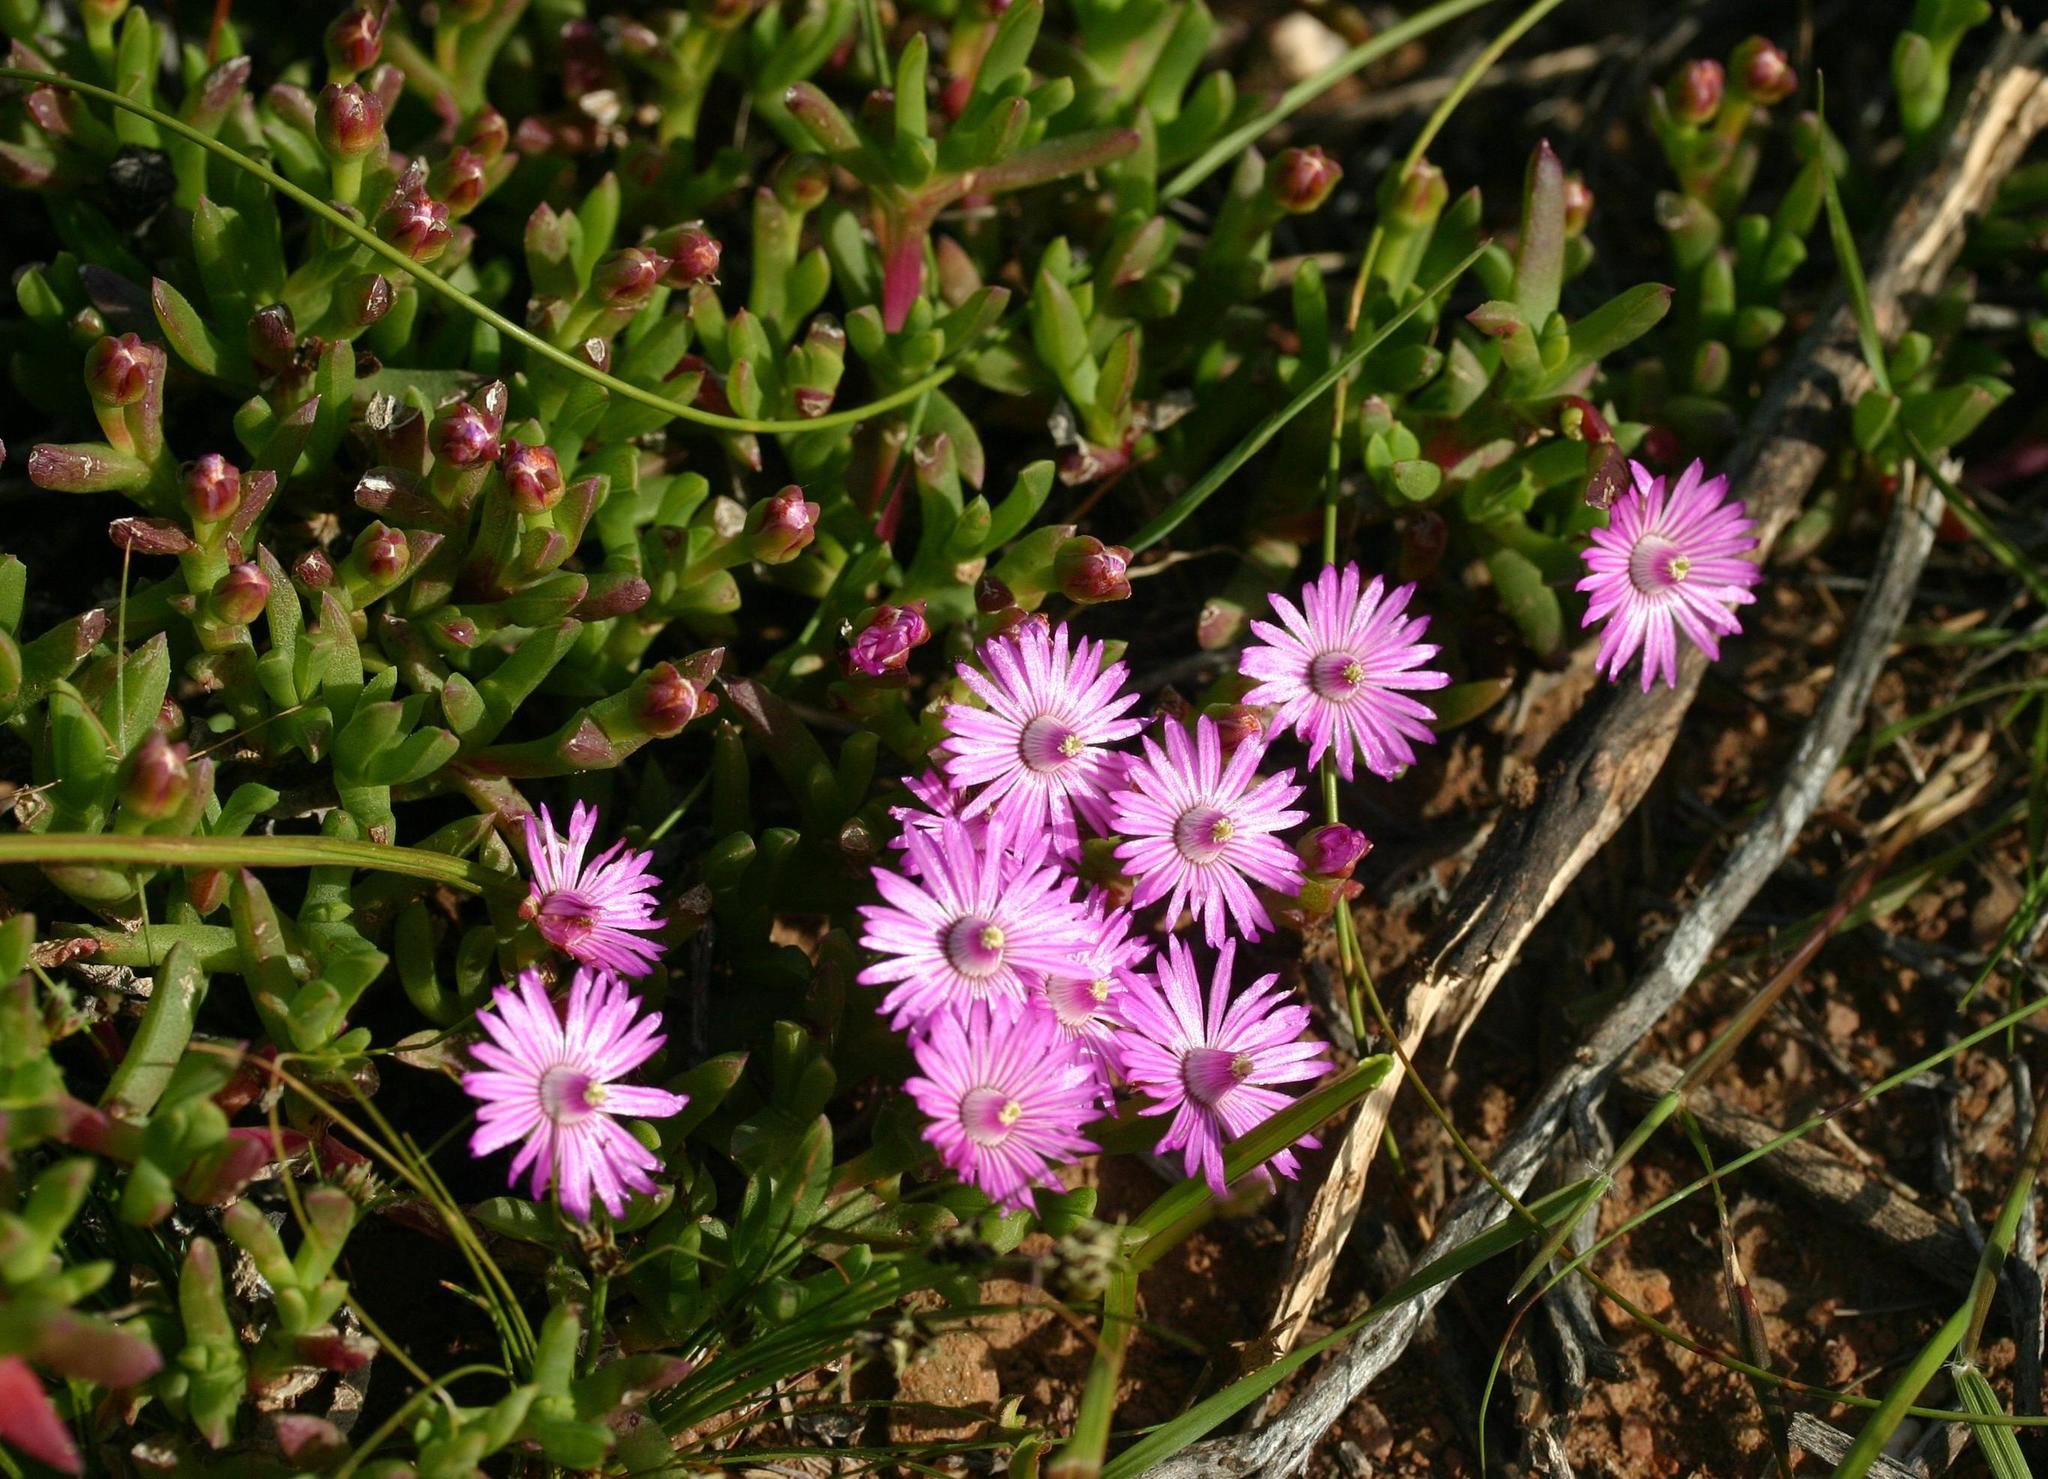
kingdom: Plantae
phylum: Tracheophyta
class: Magnoliopsida
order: Caryophyllales
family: Aizoaceae
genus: Ruschia
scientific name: Ruschia muiriana
